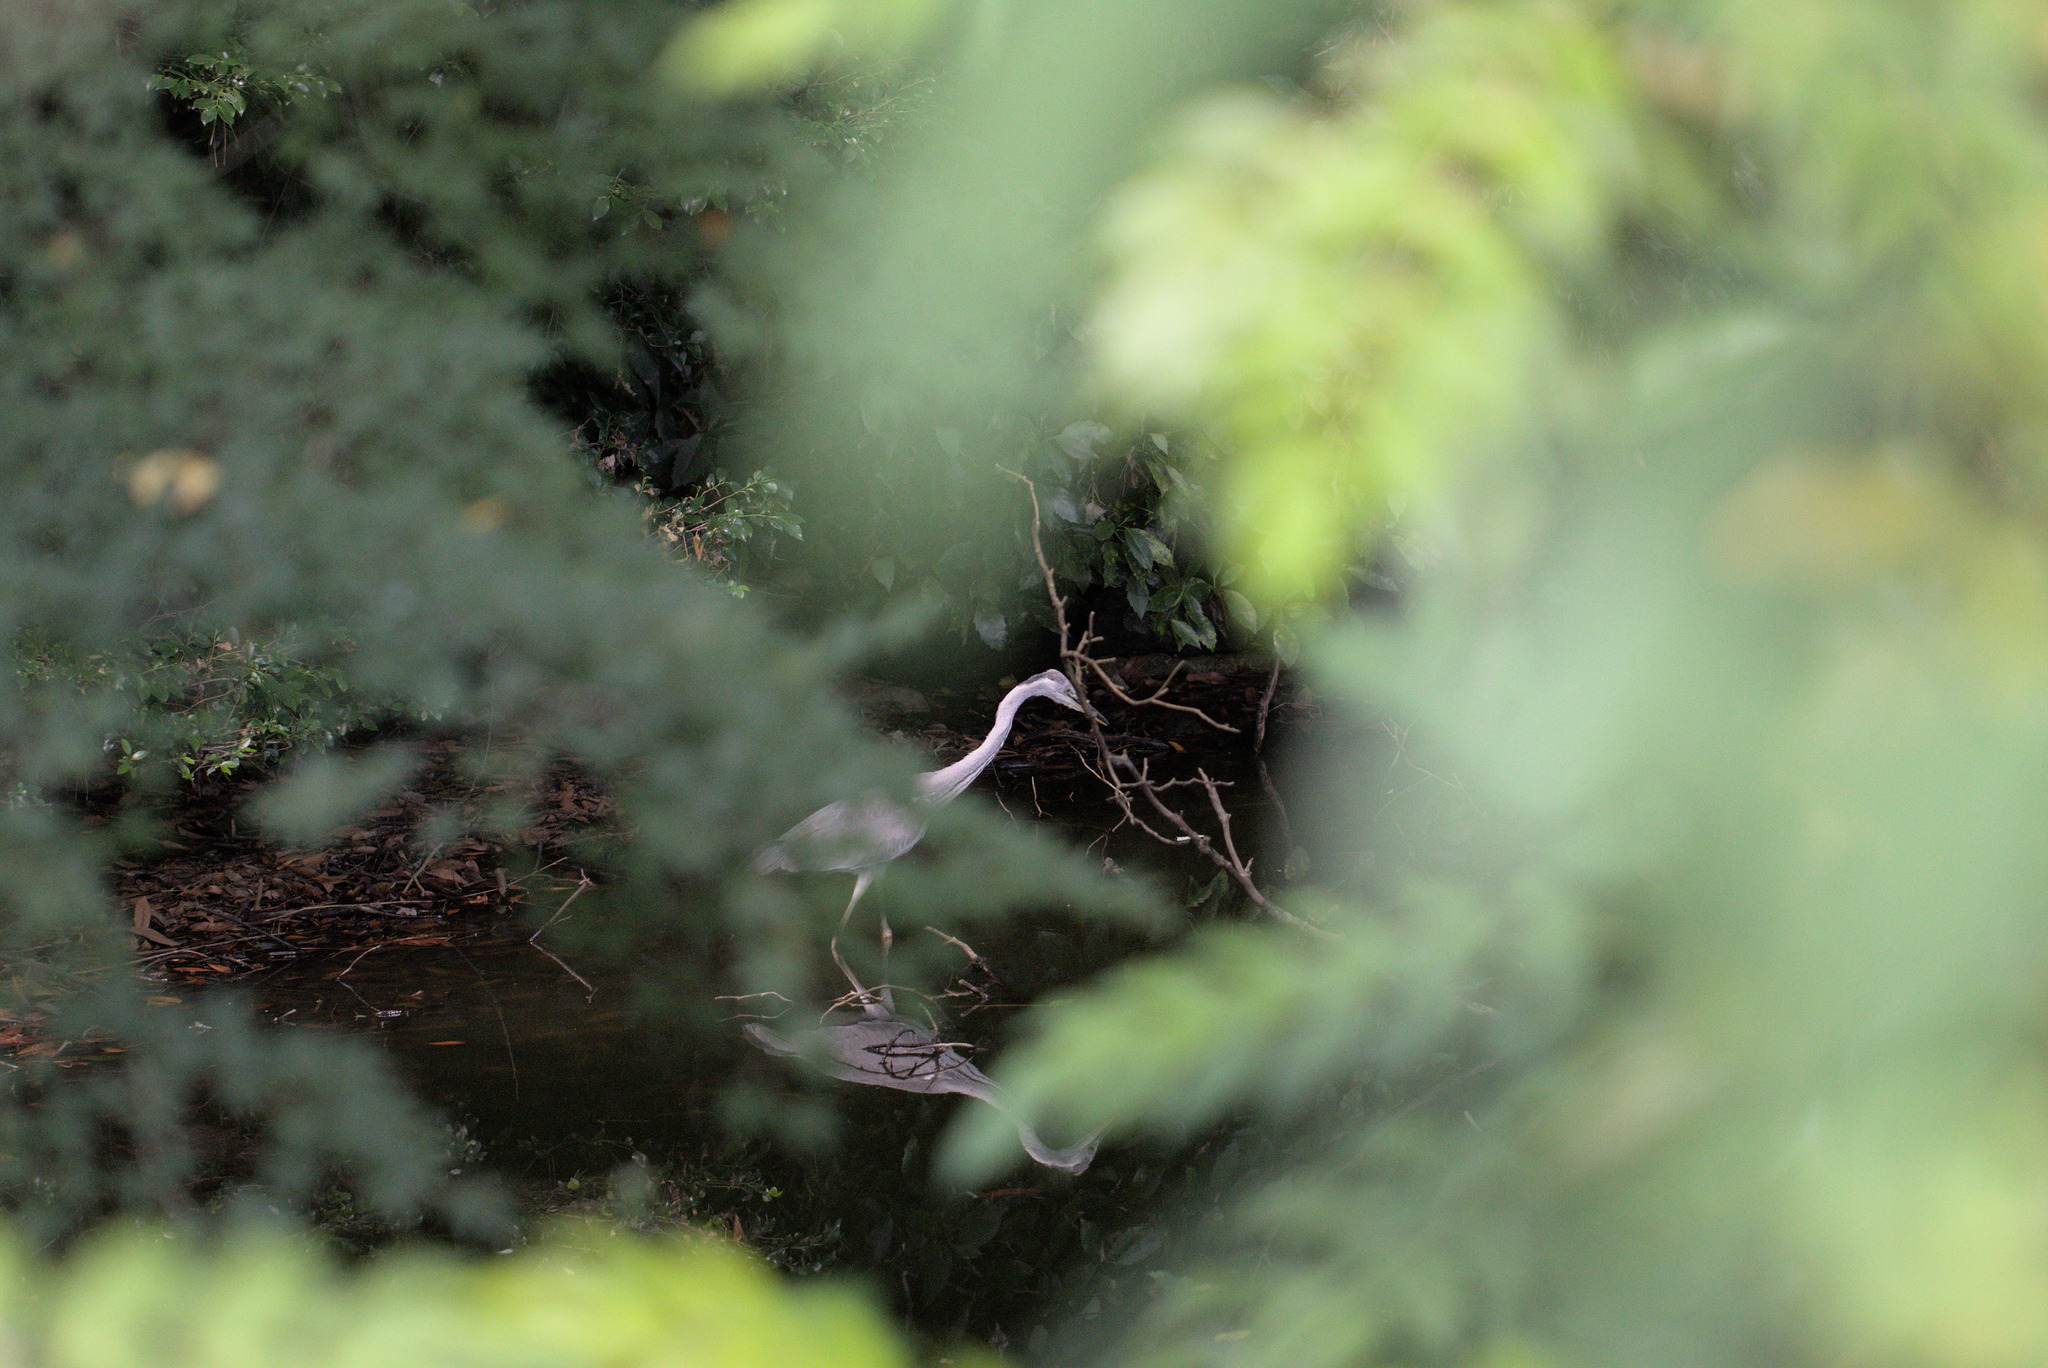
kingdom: Animalia
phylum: Chordata
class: Aves
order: Pelecaniformes
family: Ardeidae
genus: Ardea
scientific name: Ardea cinerea
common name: Grey heron
